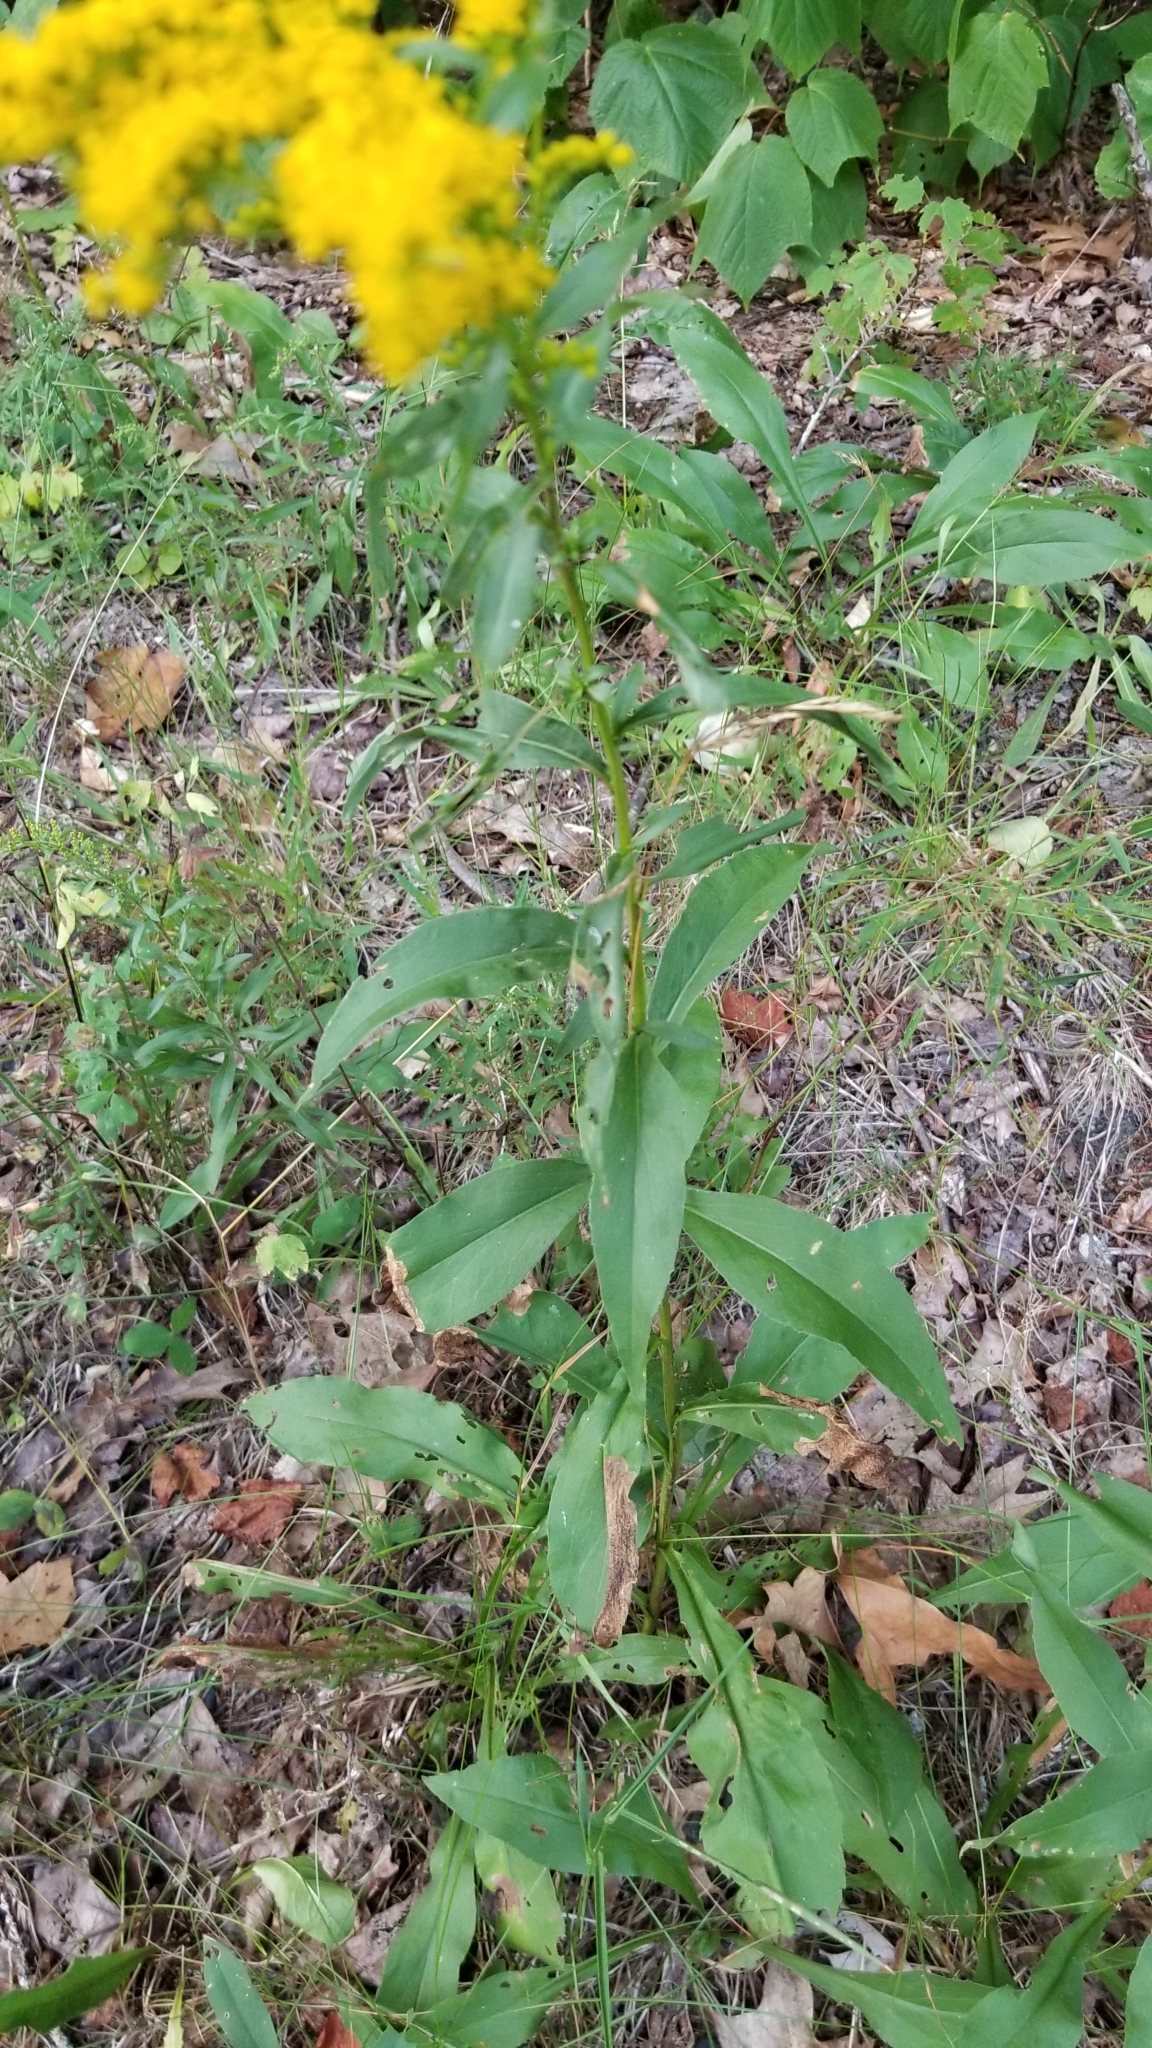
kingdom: Plantae
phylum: Tracheophyta
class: Magnoliopsida
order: Asterales
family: Asteraceae
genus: Solidago
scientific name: Solidago juncea
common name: Early goldenrod
